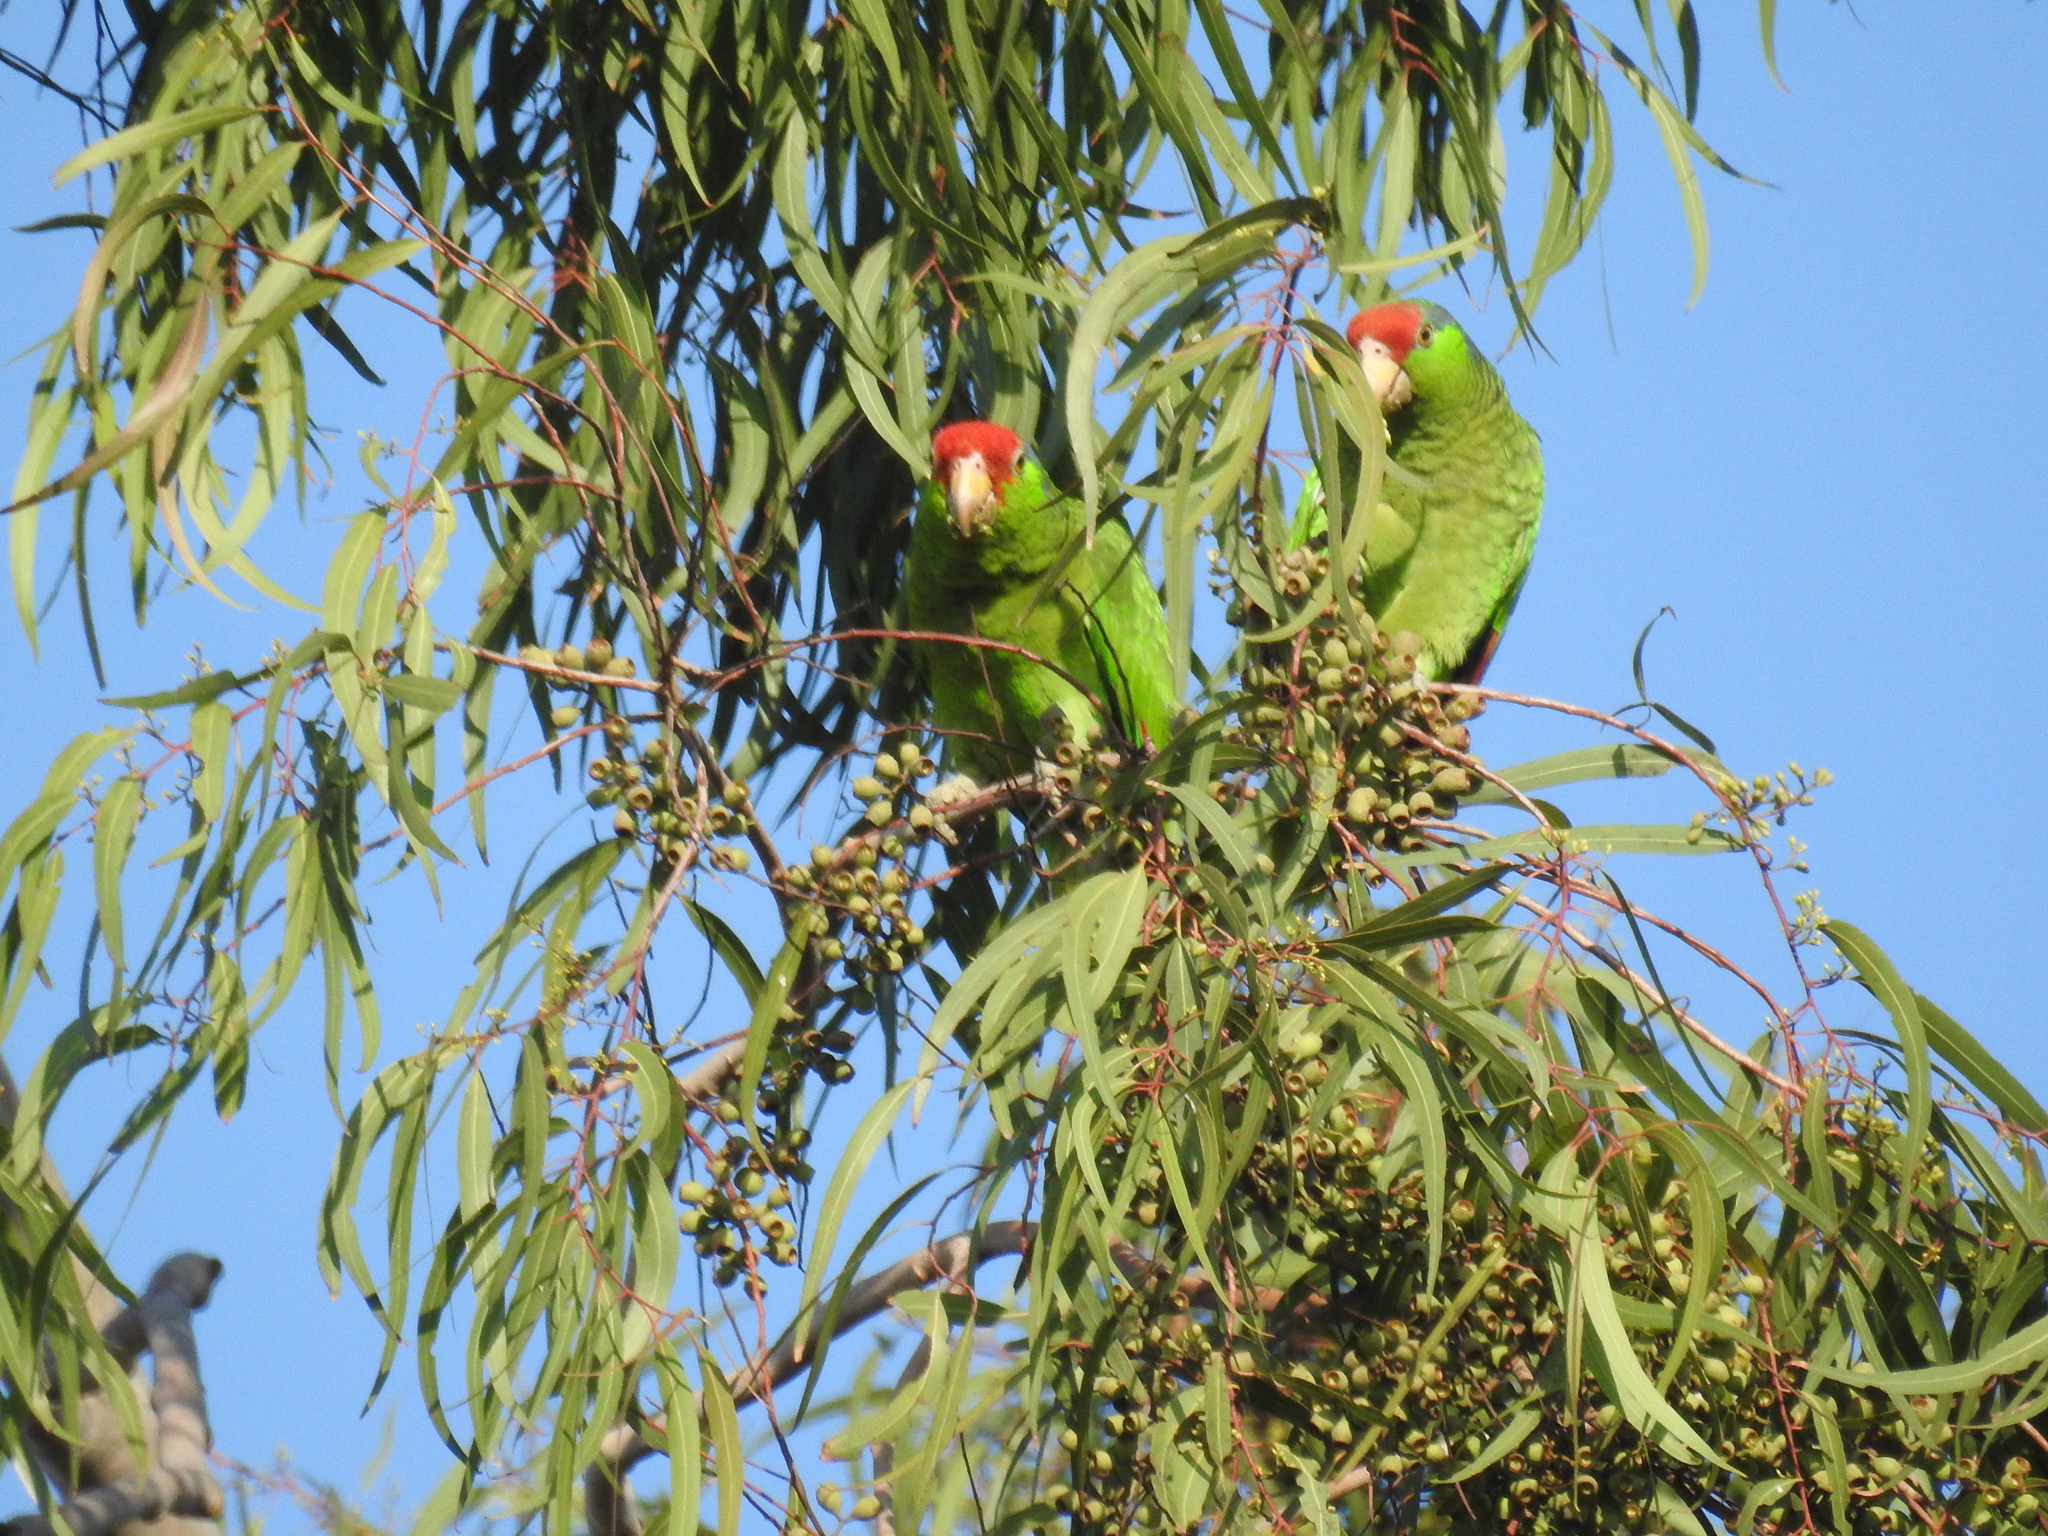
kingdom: Animalia
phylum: Chordata
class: Aves
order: Psittaciformes
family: Psittacidae
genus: Amazona
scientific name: Amazona viridigenalis
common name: Red-crowned amazon
